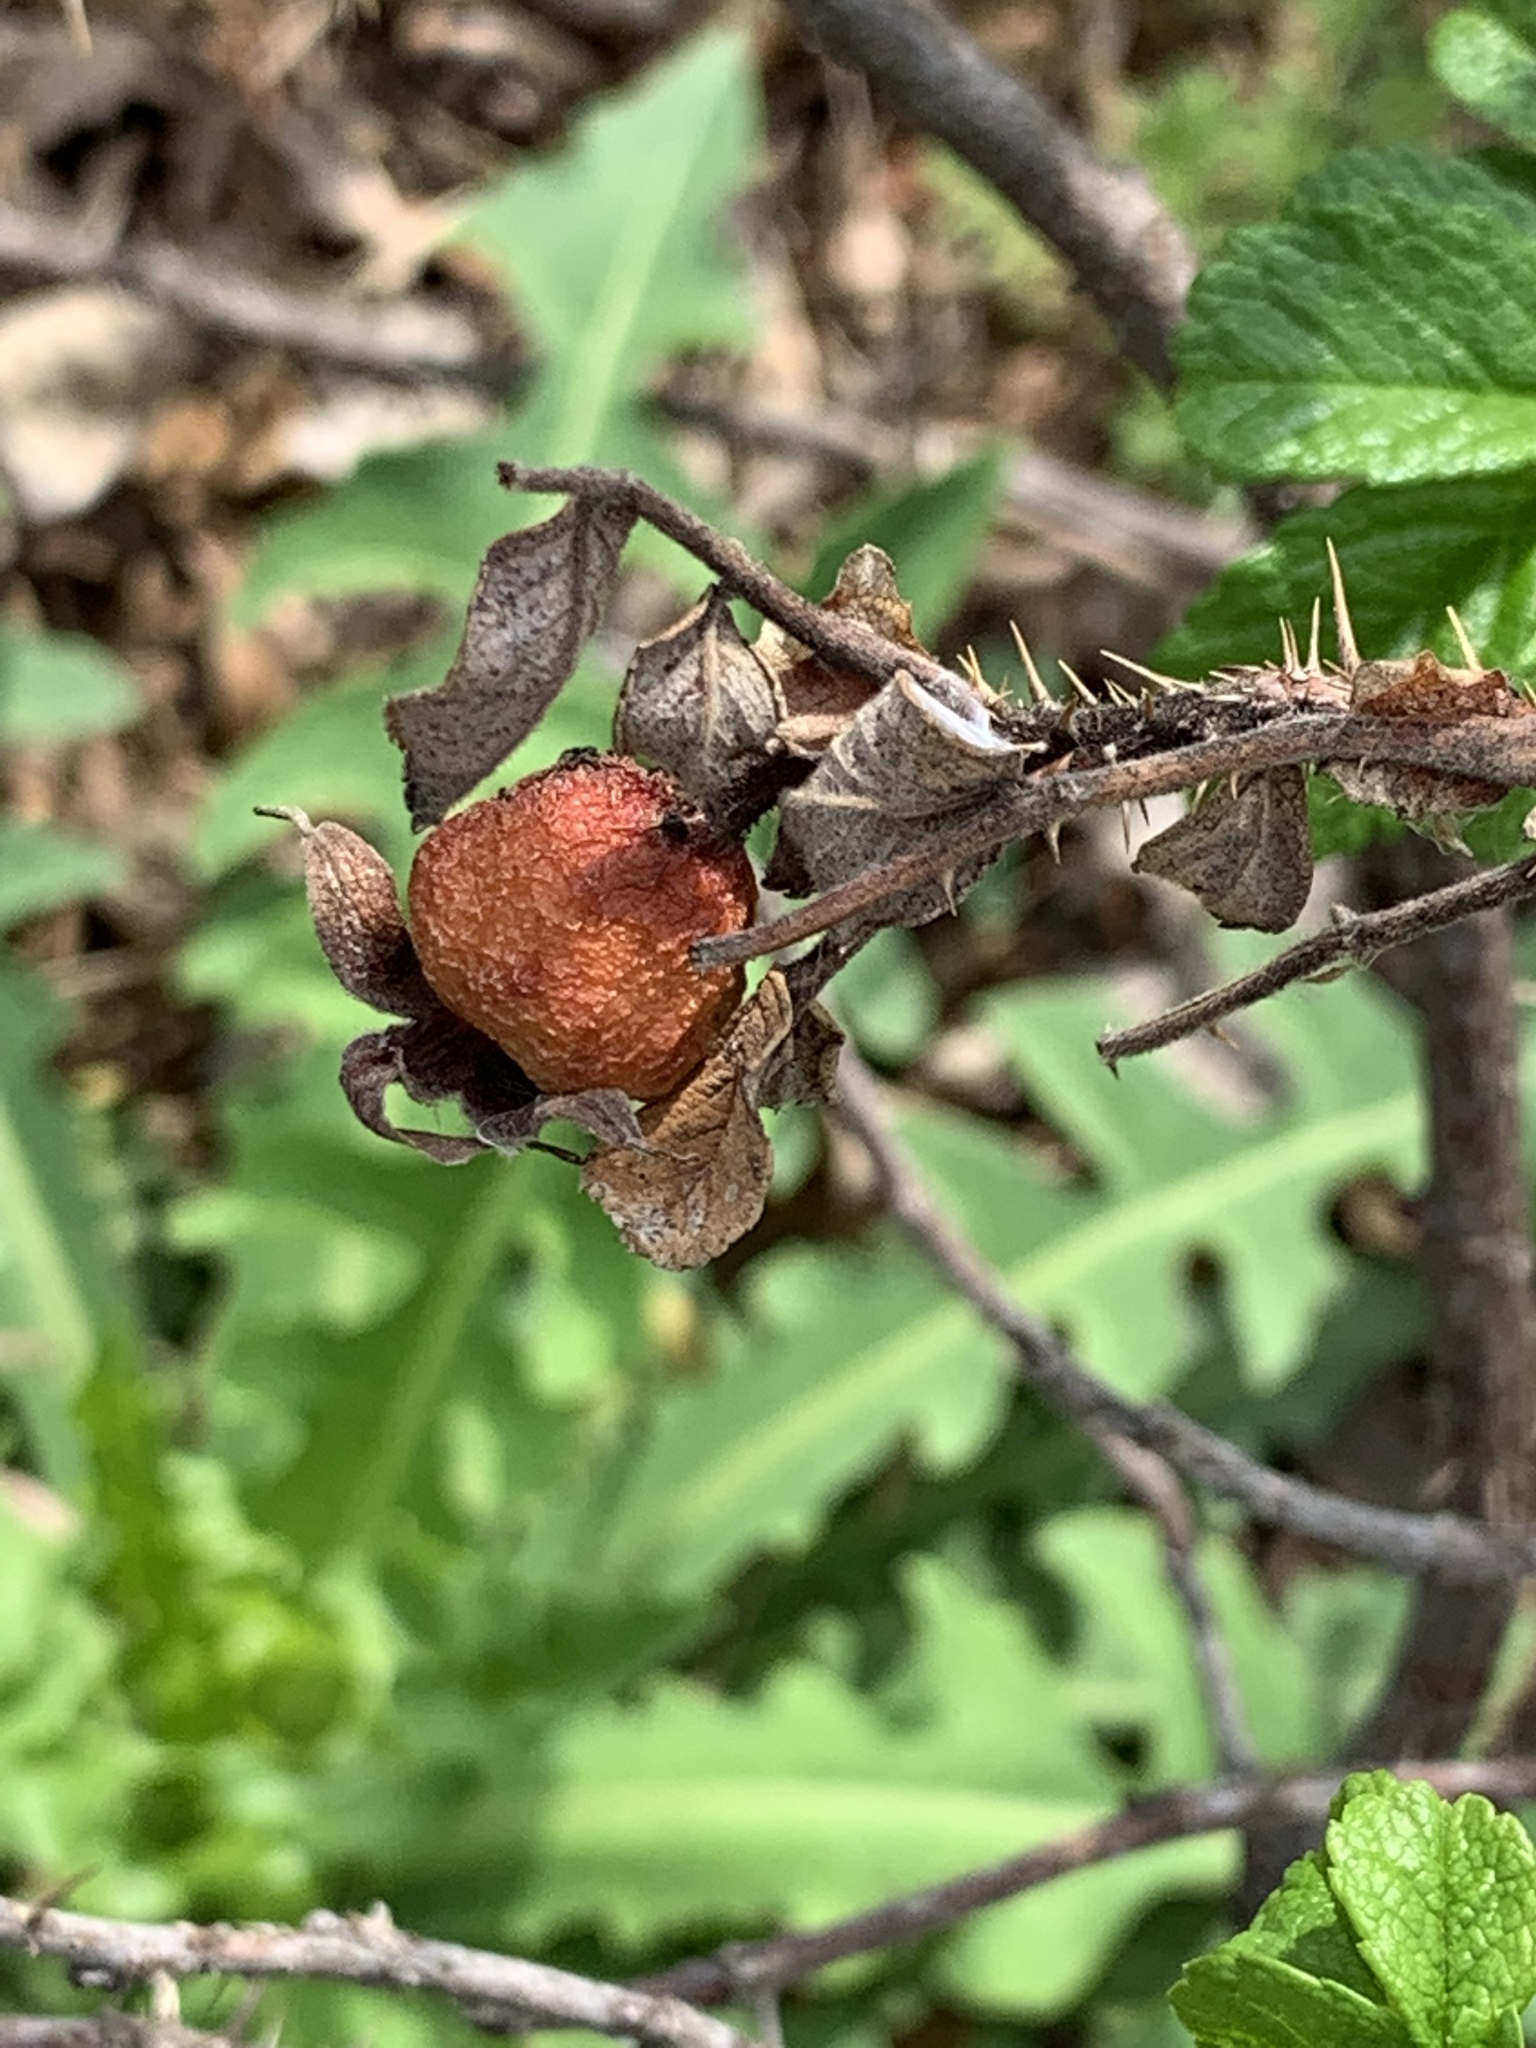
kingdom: Plantae
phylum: Tracheophyta
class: Magnoliopsida
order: Rosales
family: Rosaceae
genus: Rosa
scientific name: Rosa rugosa
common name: Japanese rose
